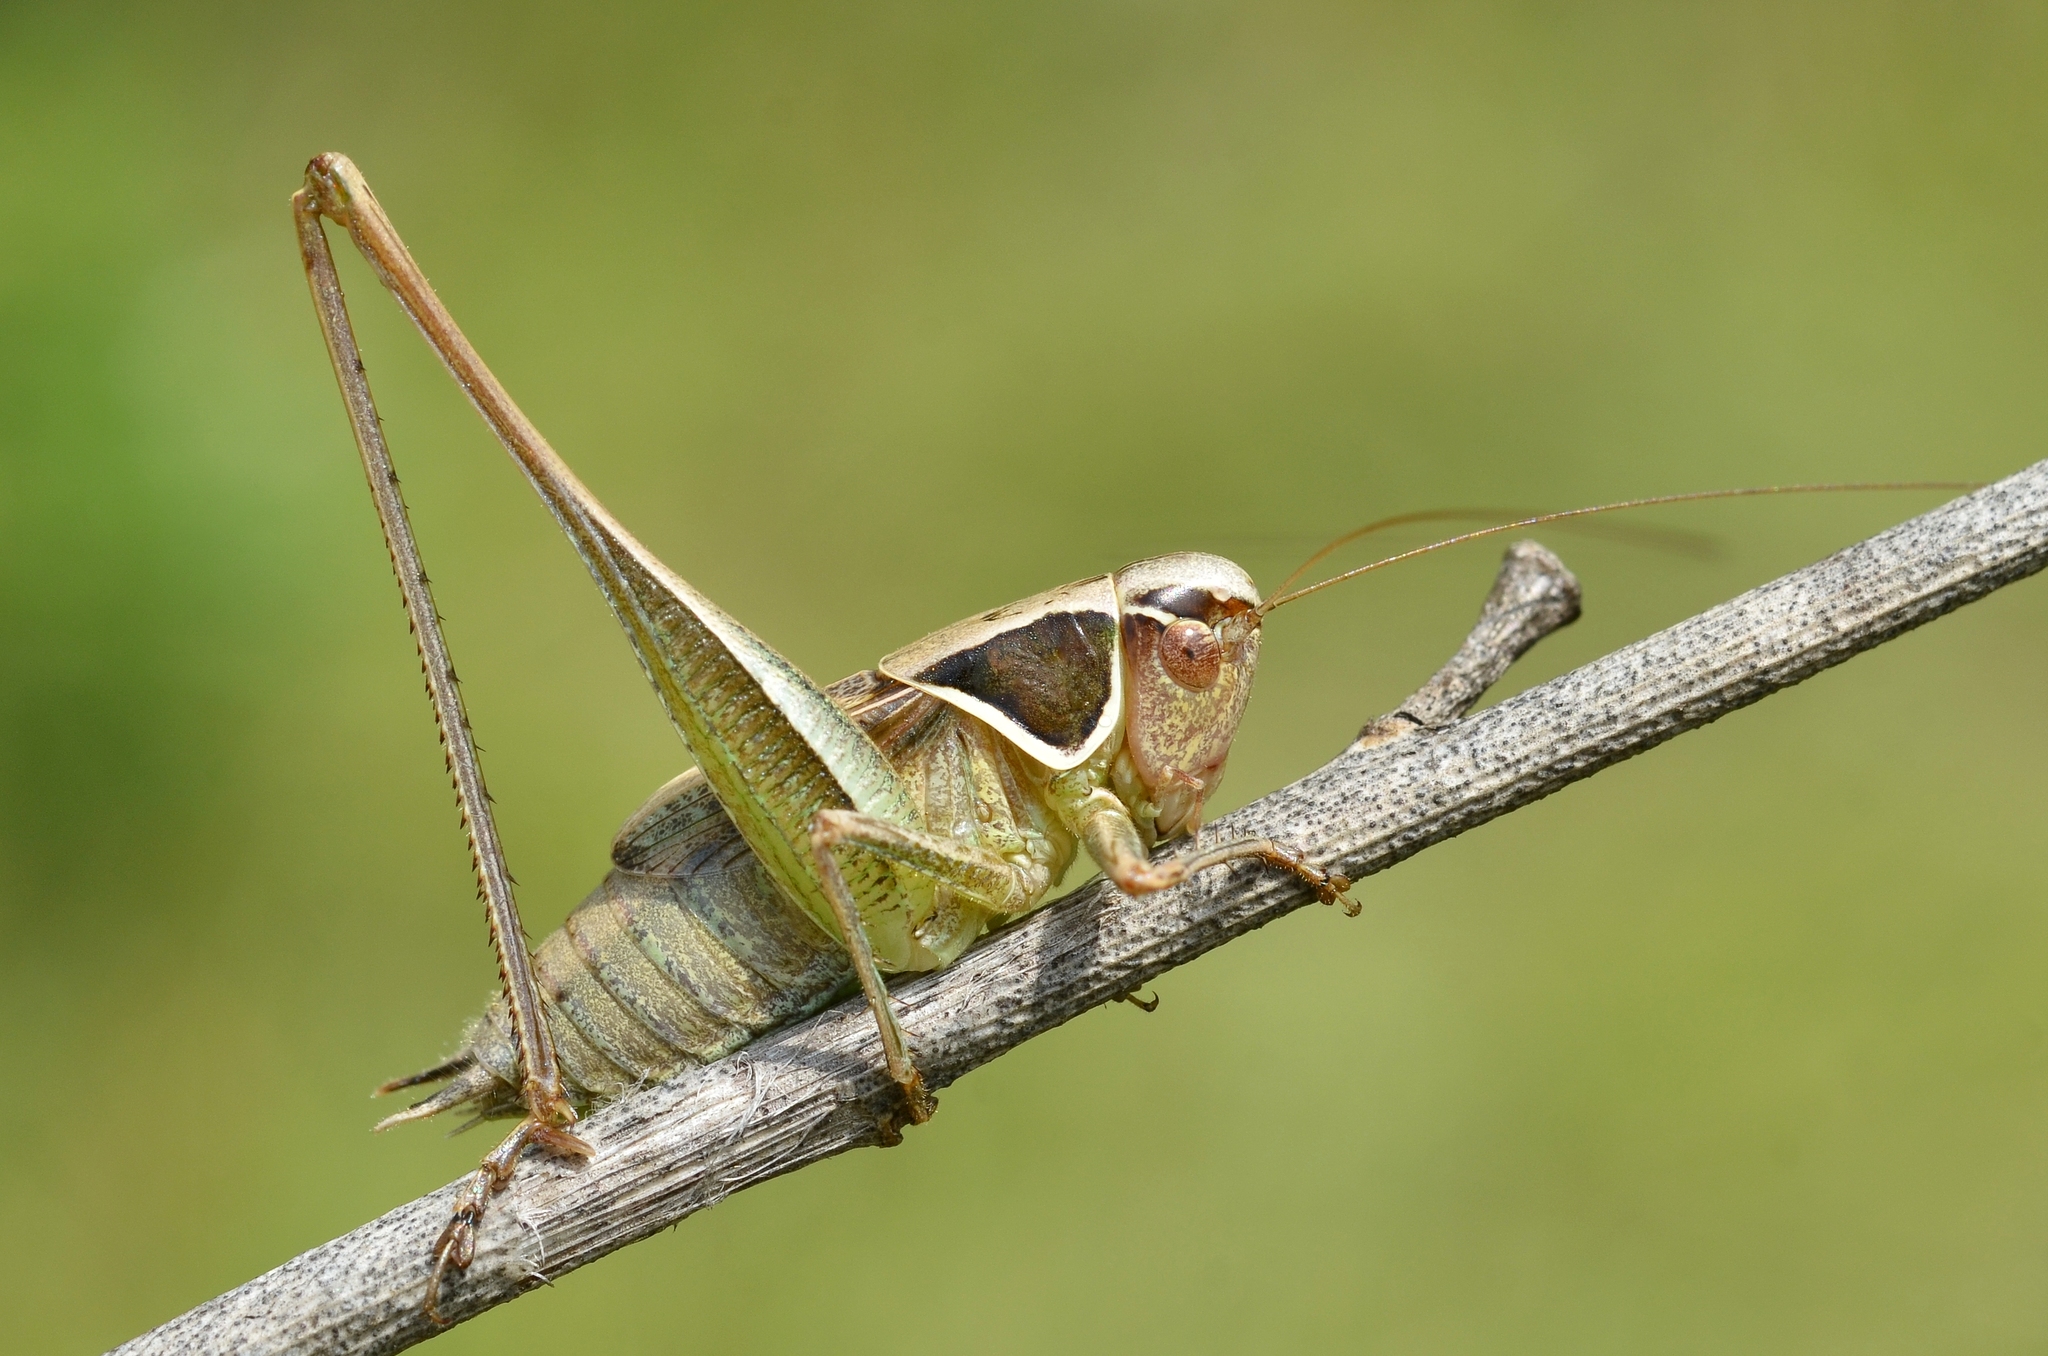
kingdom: Animalia
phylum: Arthropoda
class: Insecta
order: Orthoptera
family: Tettigoniidae
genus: Sepiana
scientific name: Sepiana sepium
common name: Sepia bush-cricket
